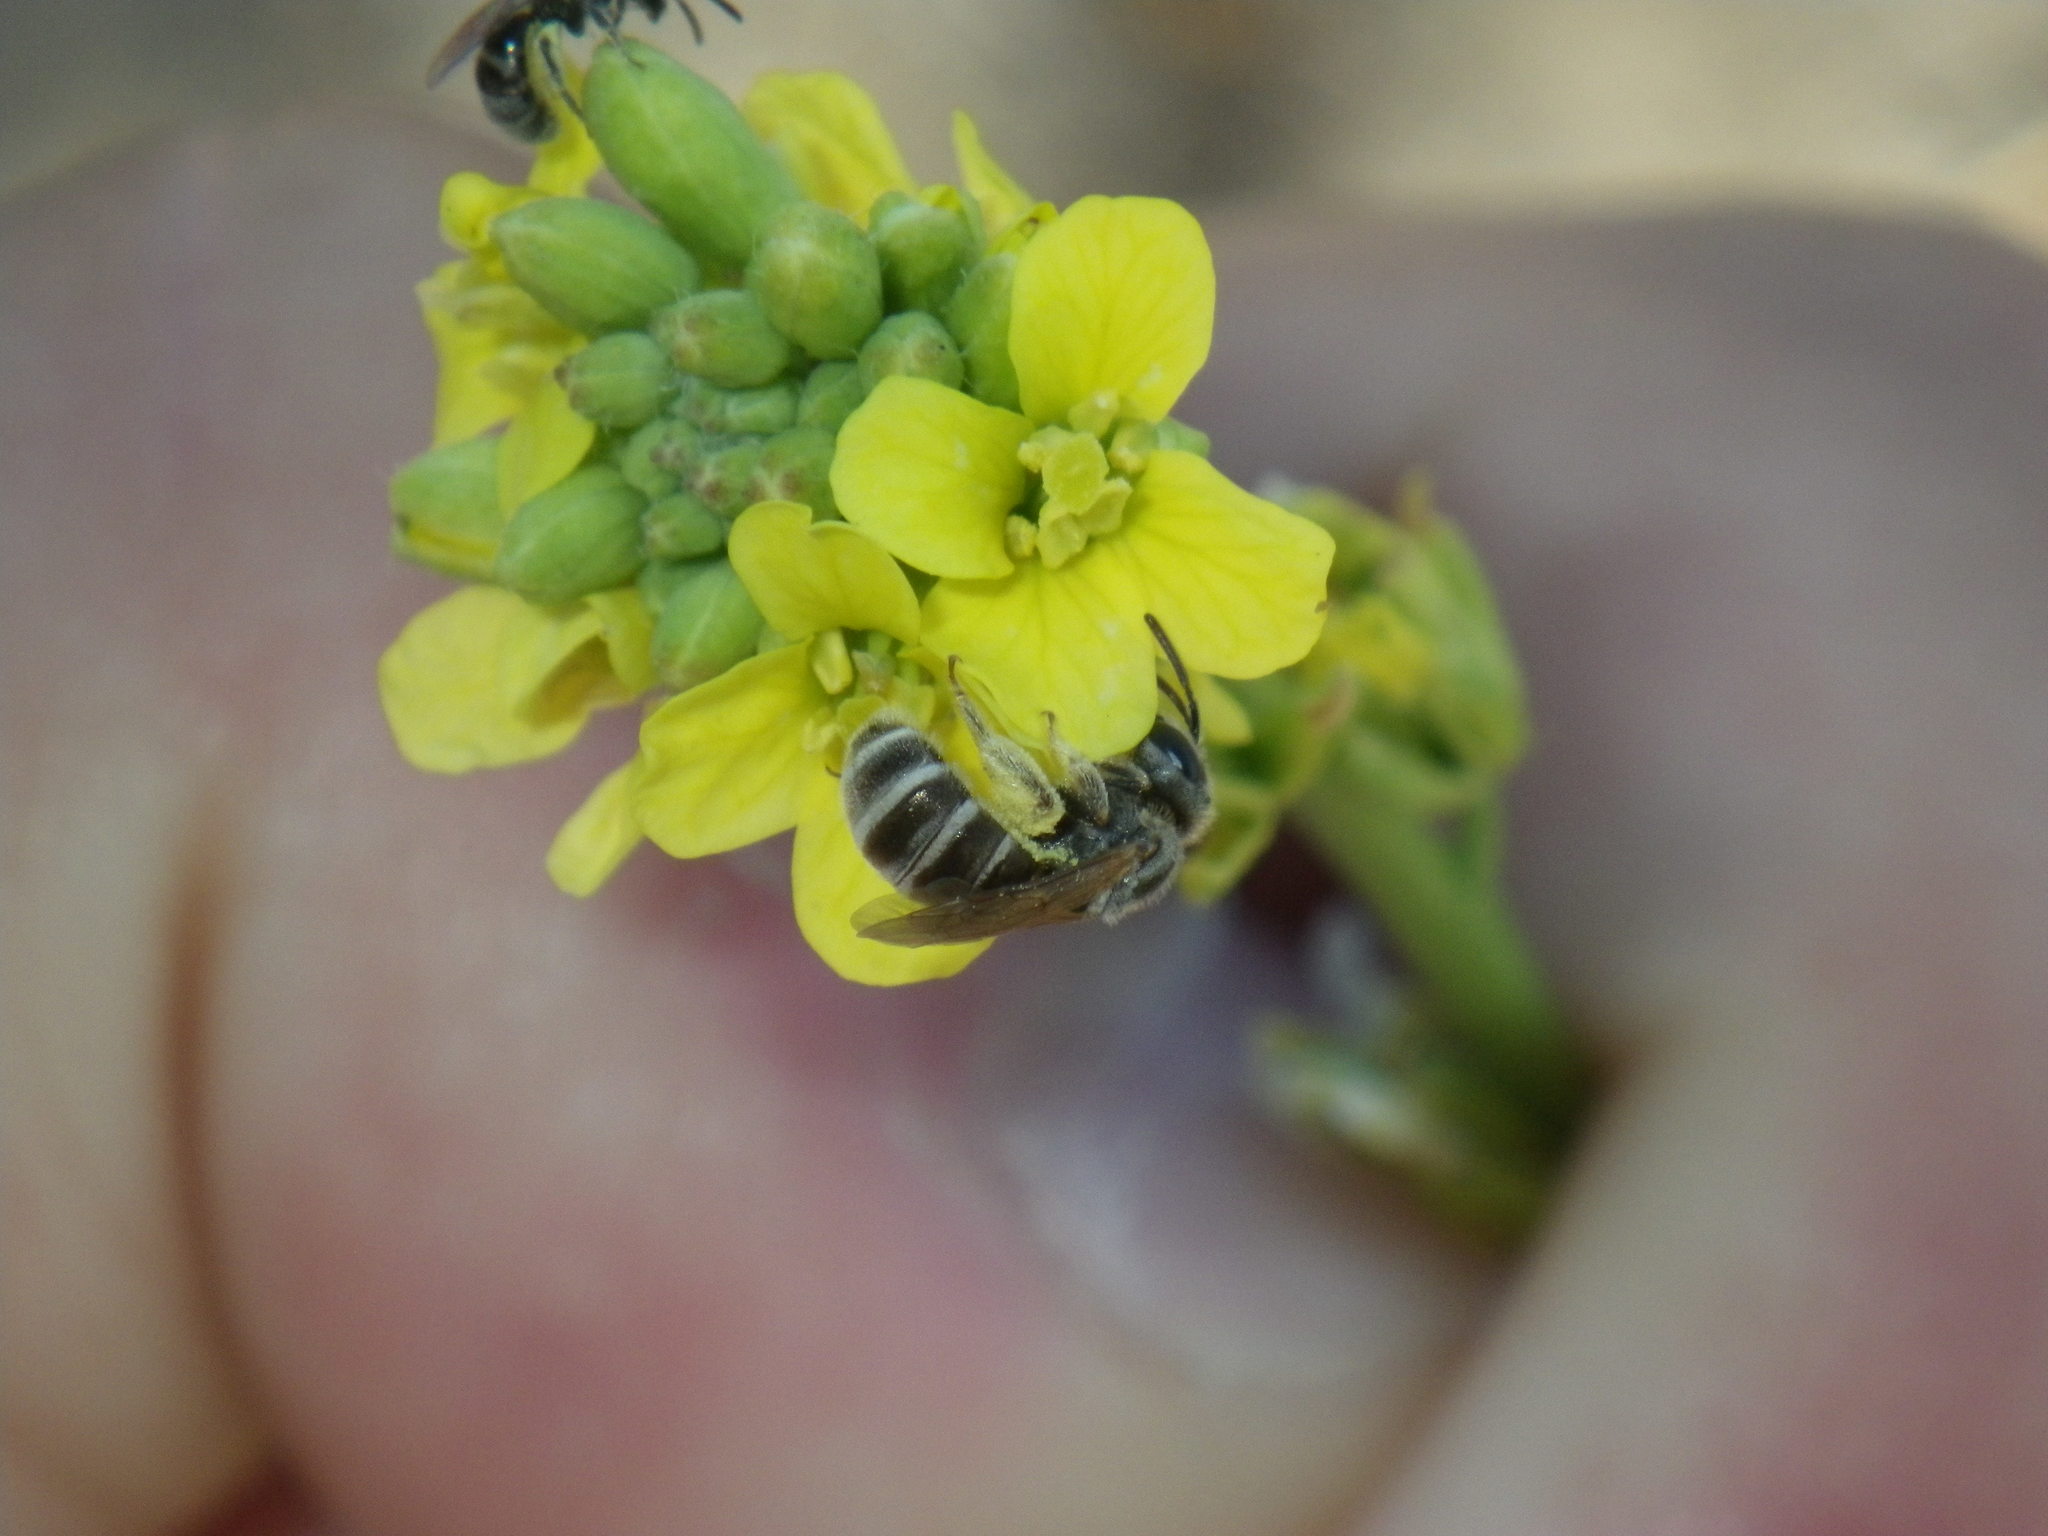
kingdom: Animalia
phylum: Arthropoda
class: Insecta
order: Hymenoptera
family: Halictidae
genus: Halictus
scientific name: Halictus tripartitus
